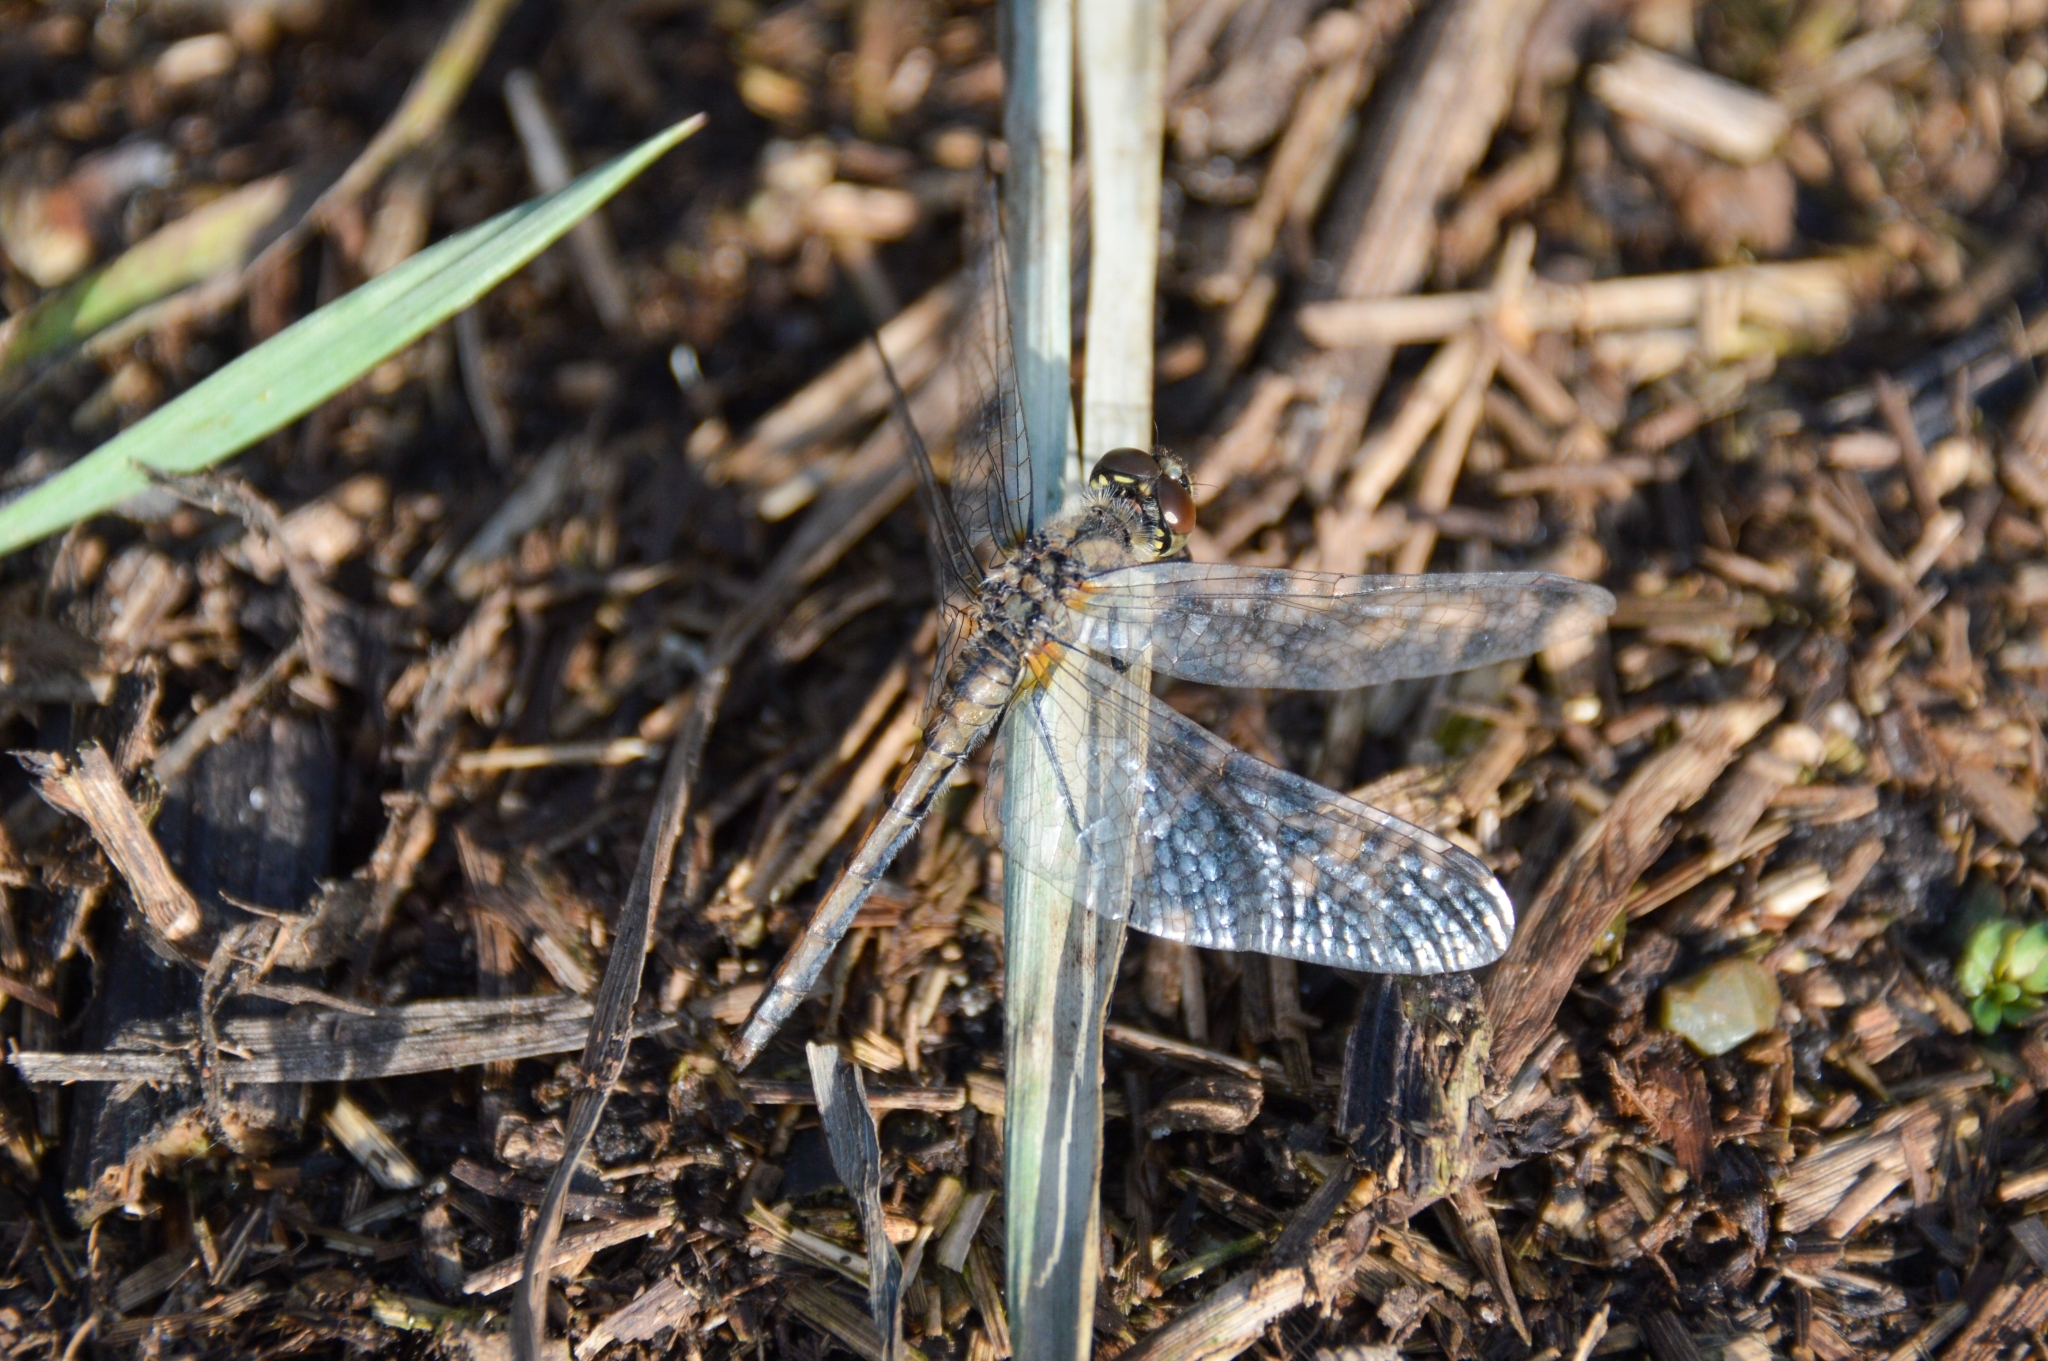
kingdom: Animalia
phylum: Arthropoda
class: Insecta
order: Odonata
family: Libellulidae
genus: Sympetrum
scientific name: Sympetrum danae
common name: Black darter
